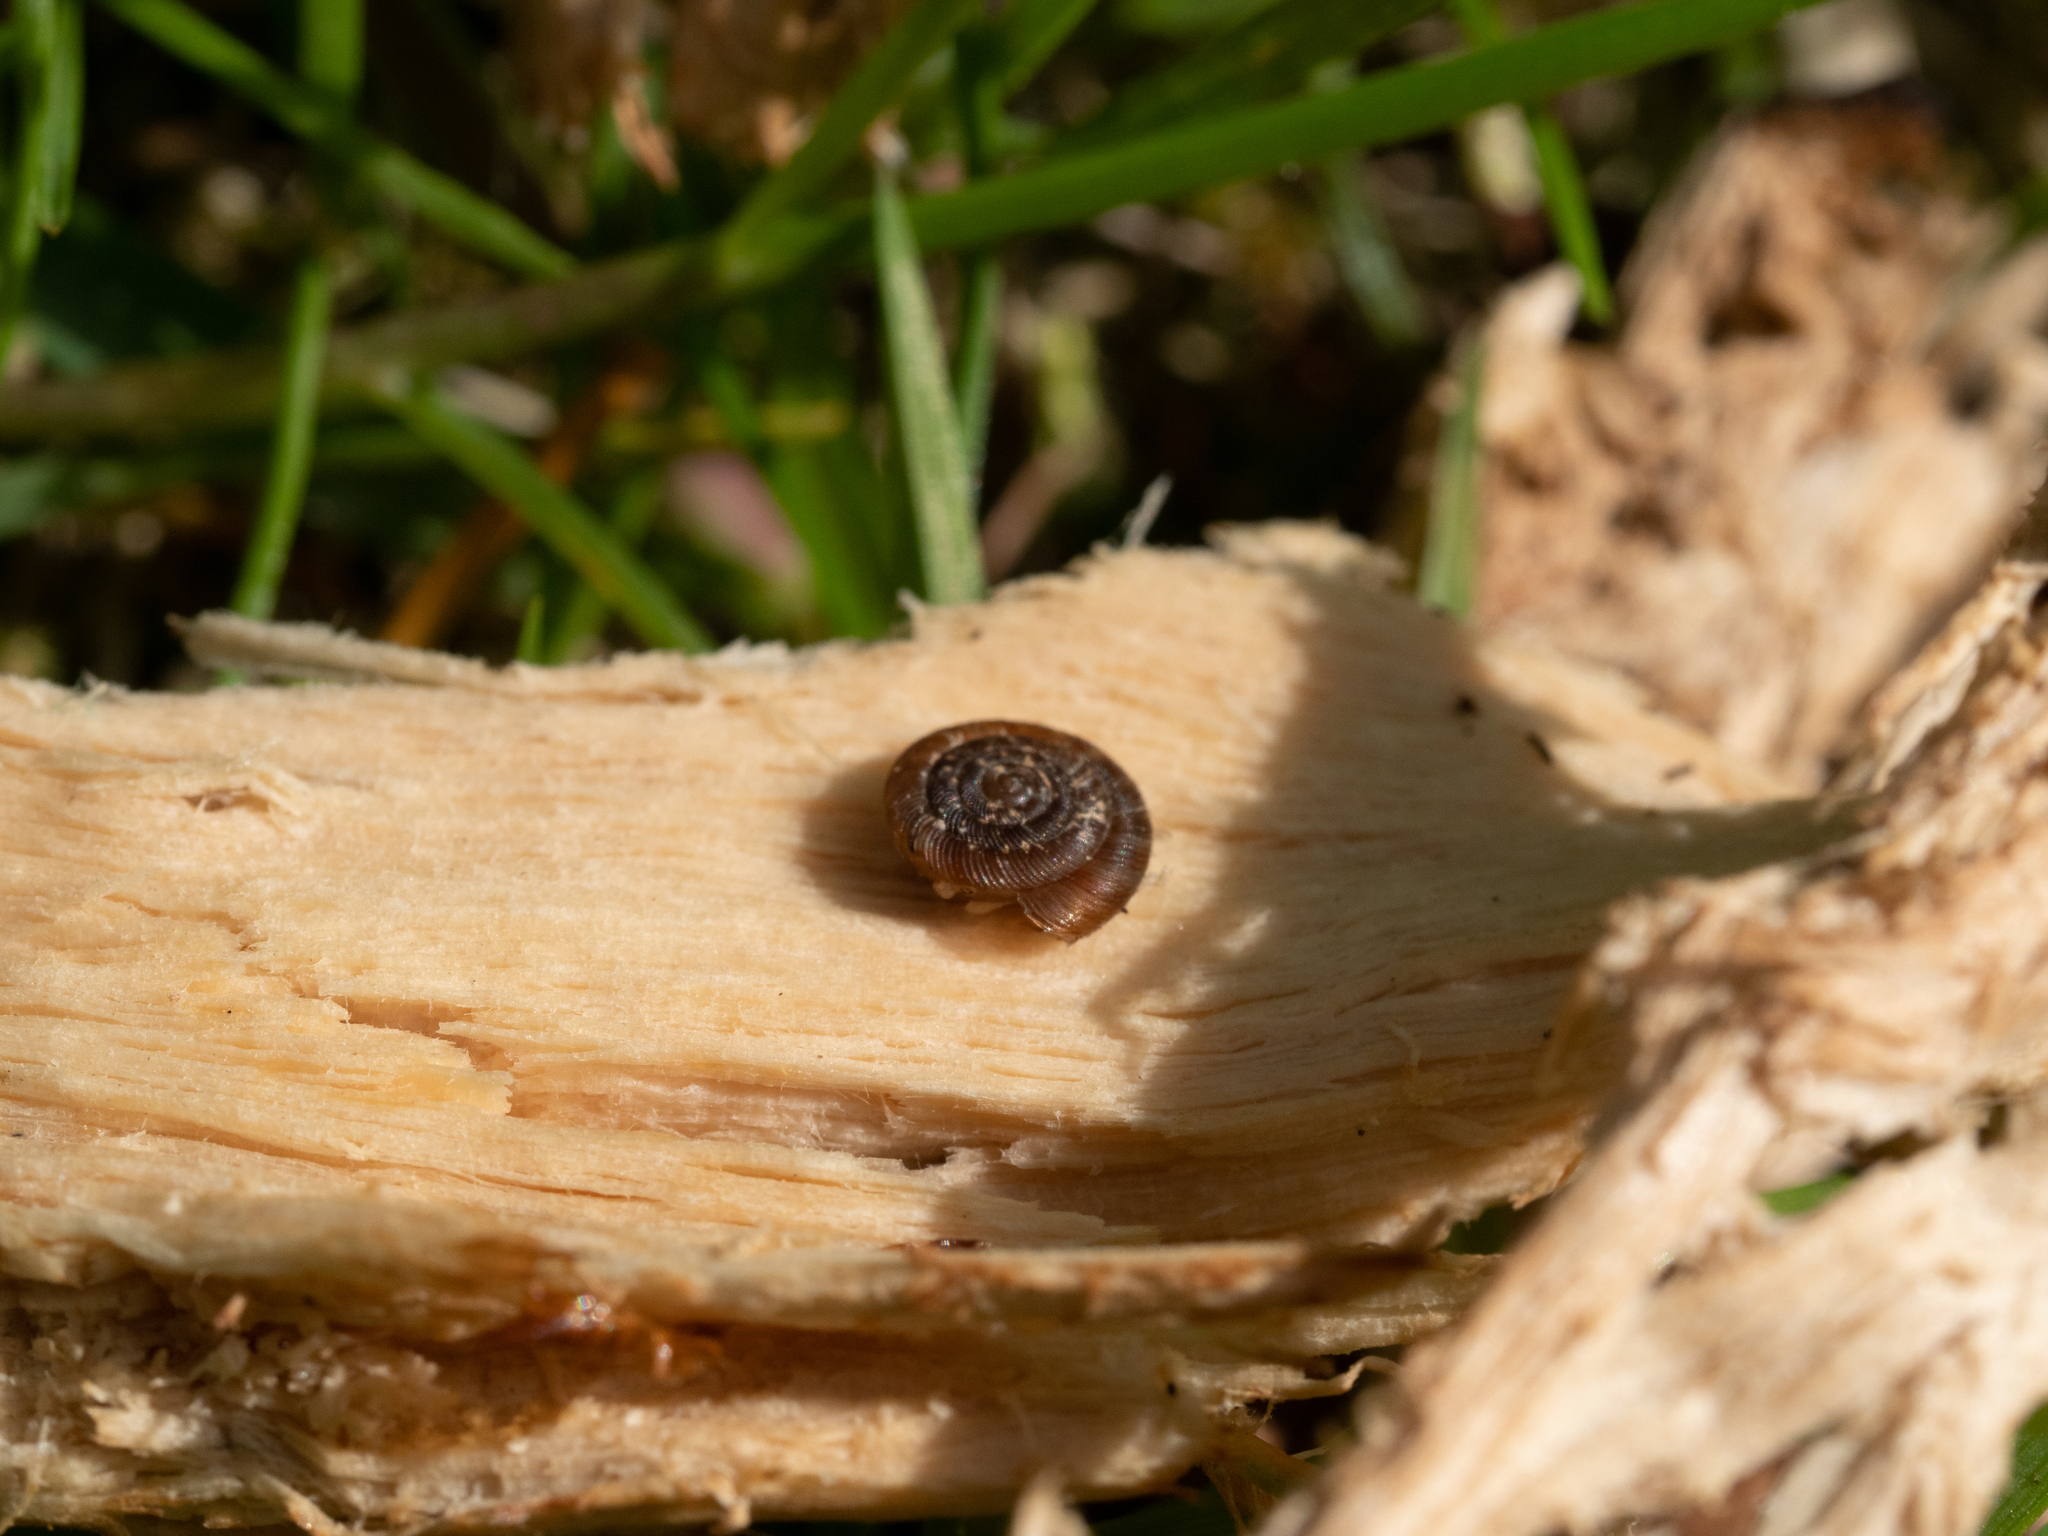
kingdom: Animalia
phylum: Mollusca
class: Gastropoda
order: Stylommatophora
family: Discidae
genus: Discus
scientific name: Discus rotundatus
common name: Rounded snail
